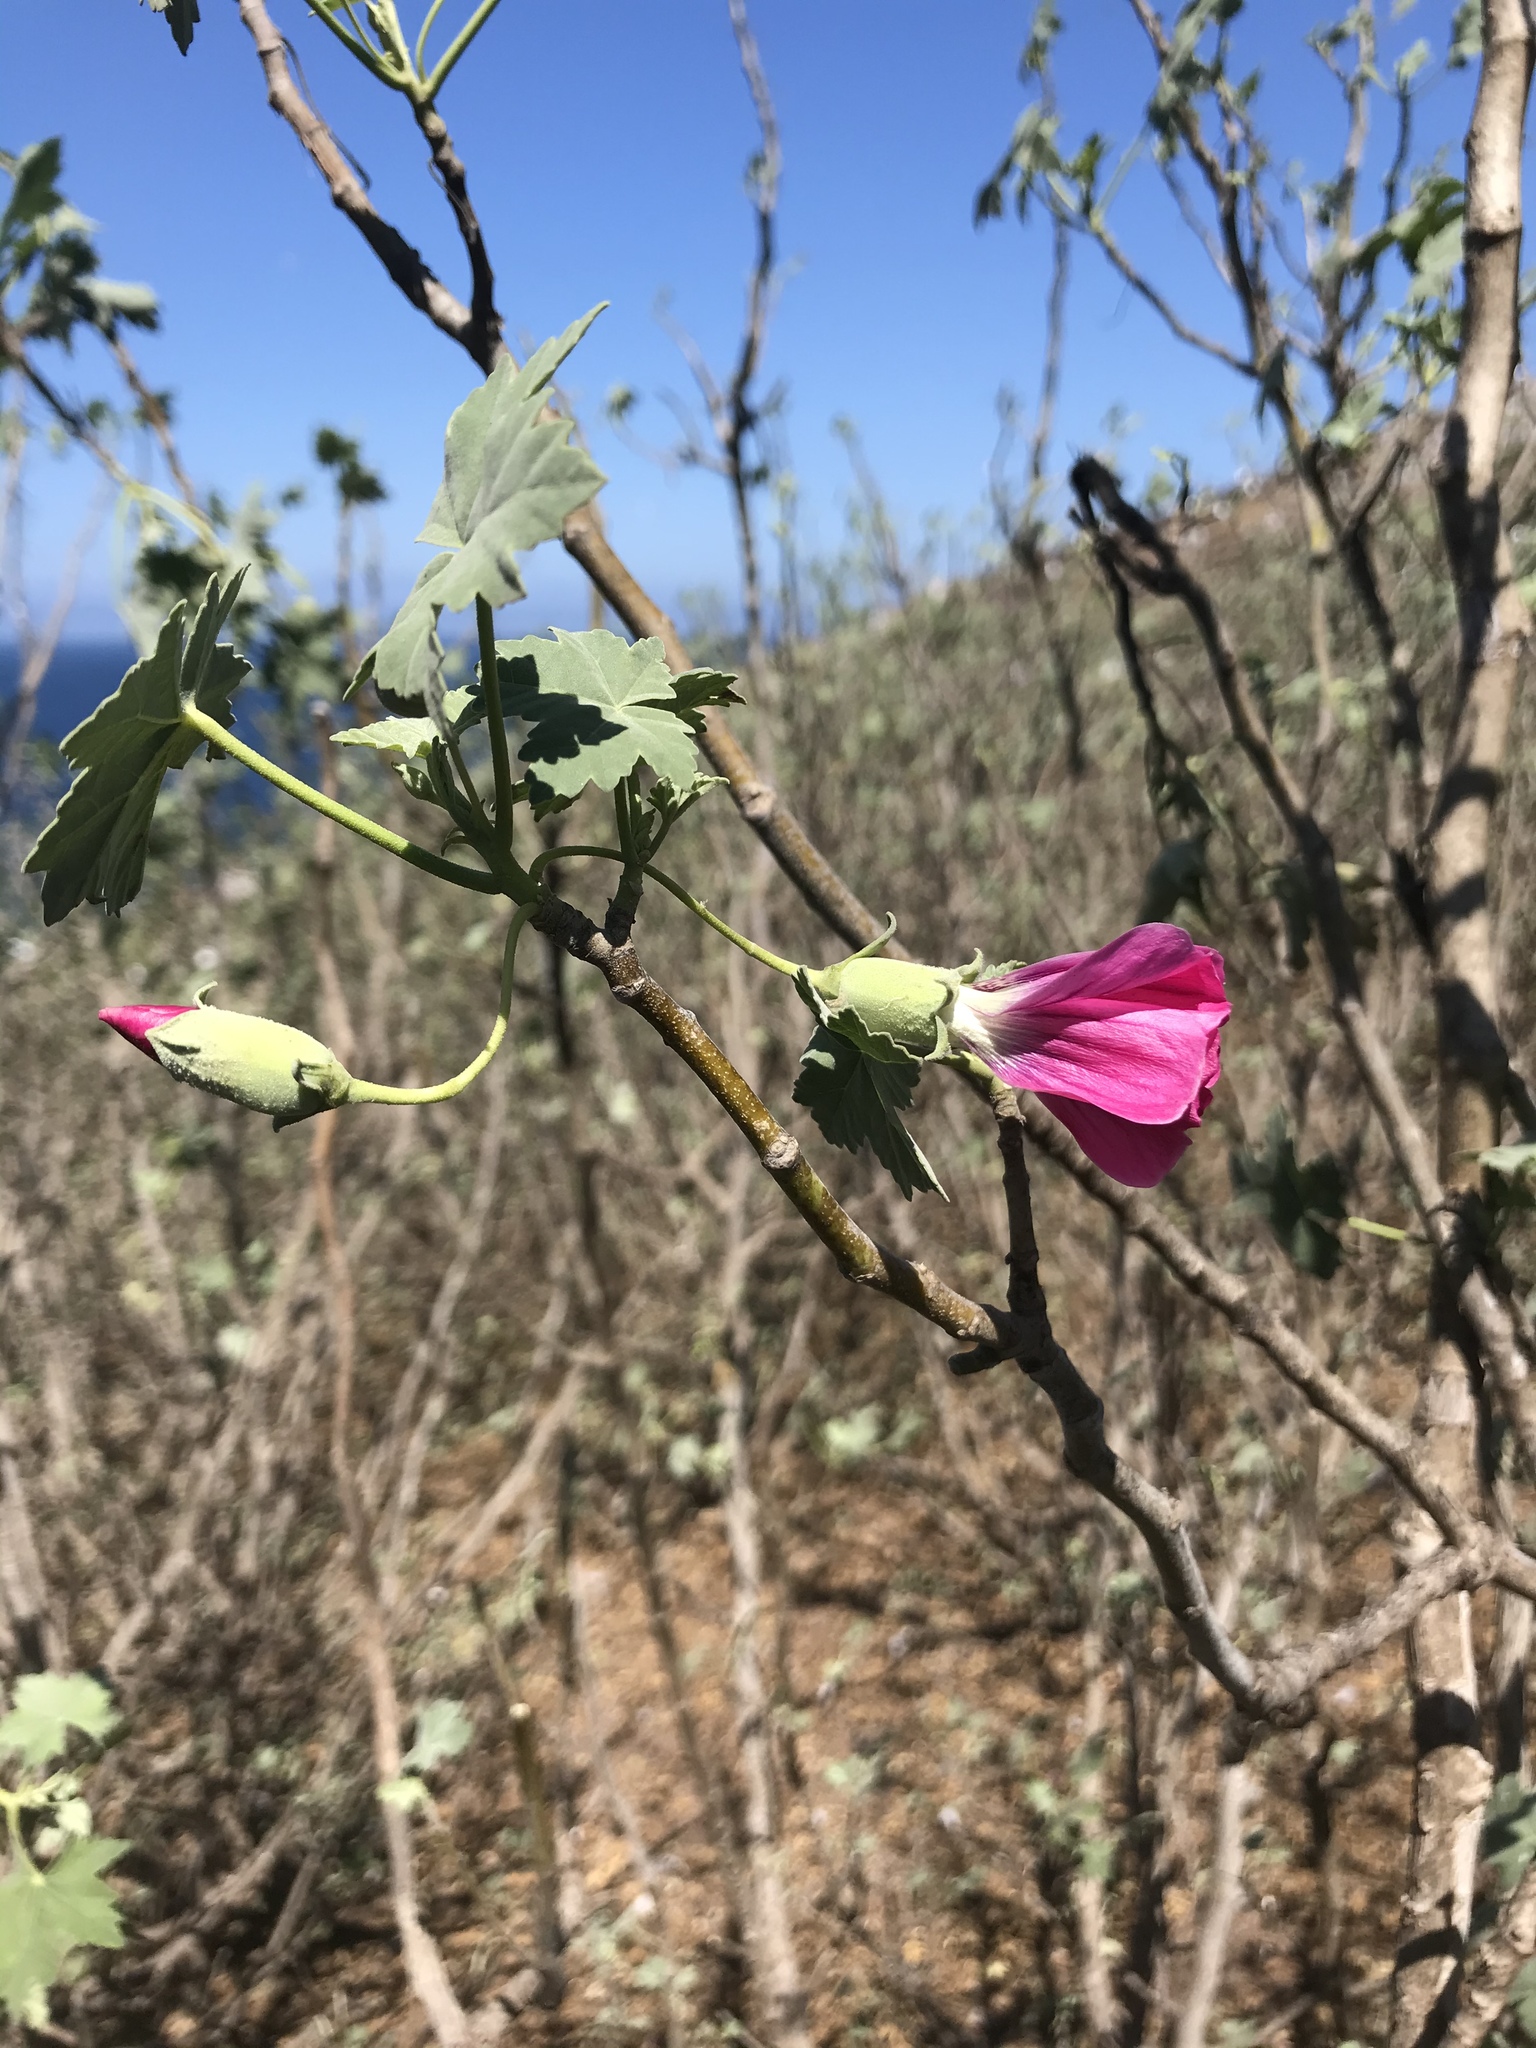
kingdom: Plantae
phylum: Tracheophyta
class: Magnoliopsida
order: Malvales
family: Malvaceae
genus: Malva
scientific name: Malva assurgentiflora
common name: Island mallow
